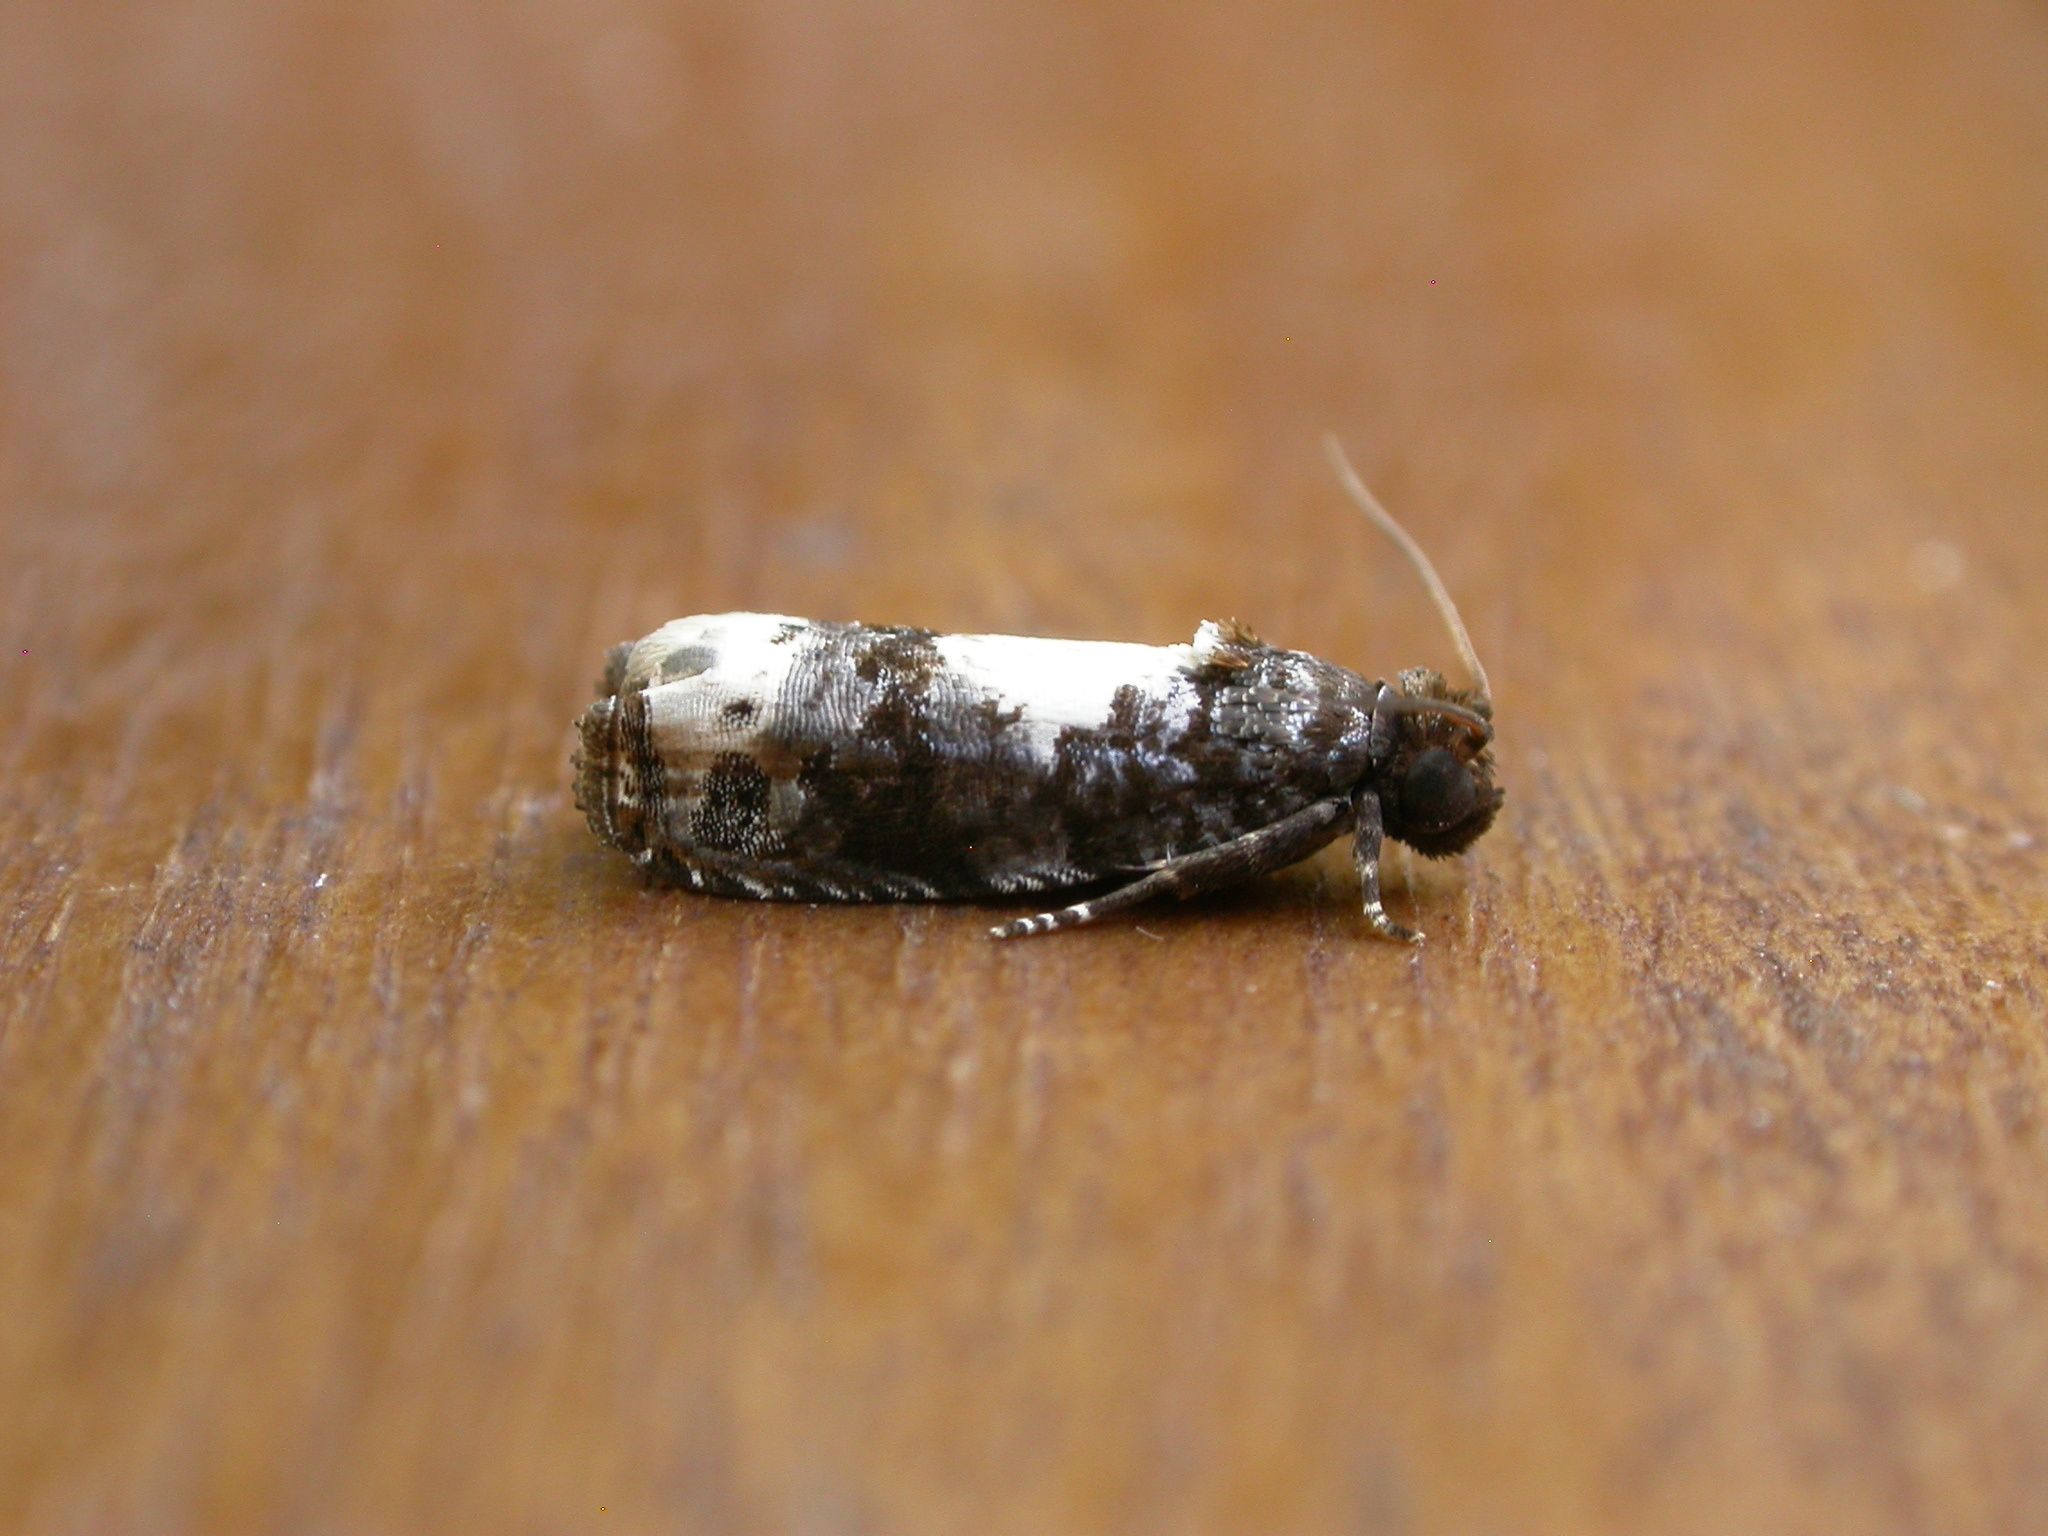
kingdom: Animalia
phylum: Arthropoda
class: Insecta
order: Lepidoptera
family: Tortricidae
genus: Euobraztsovia
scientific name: Euobraztsovia chionodelta
